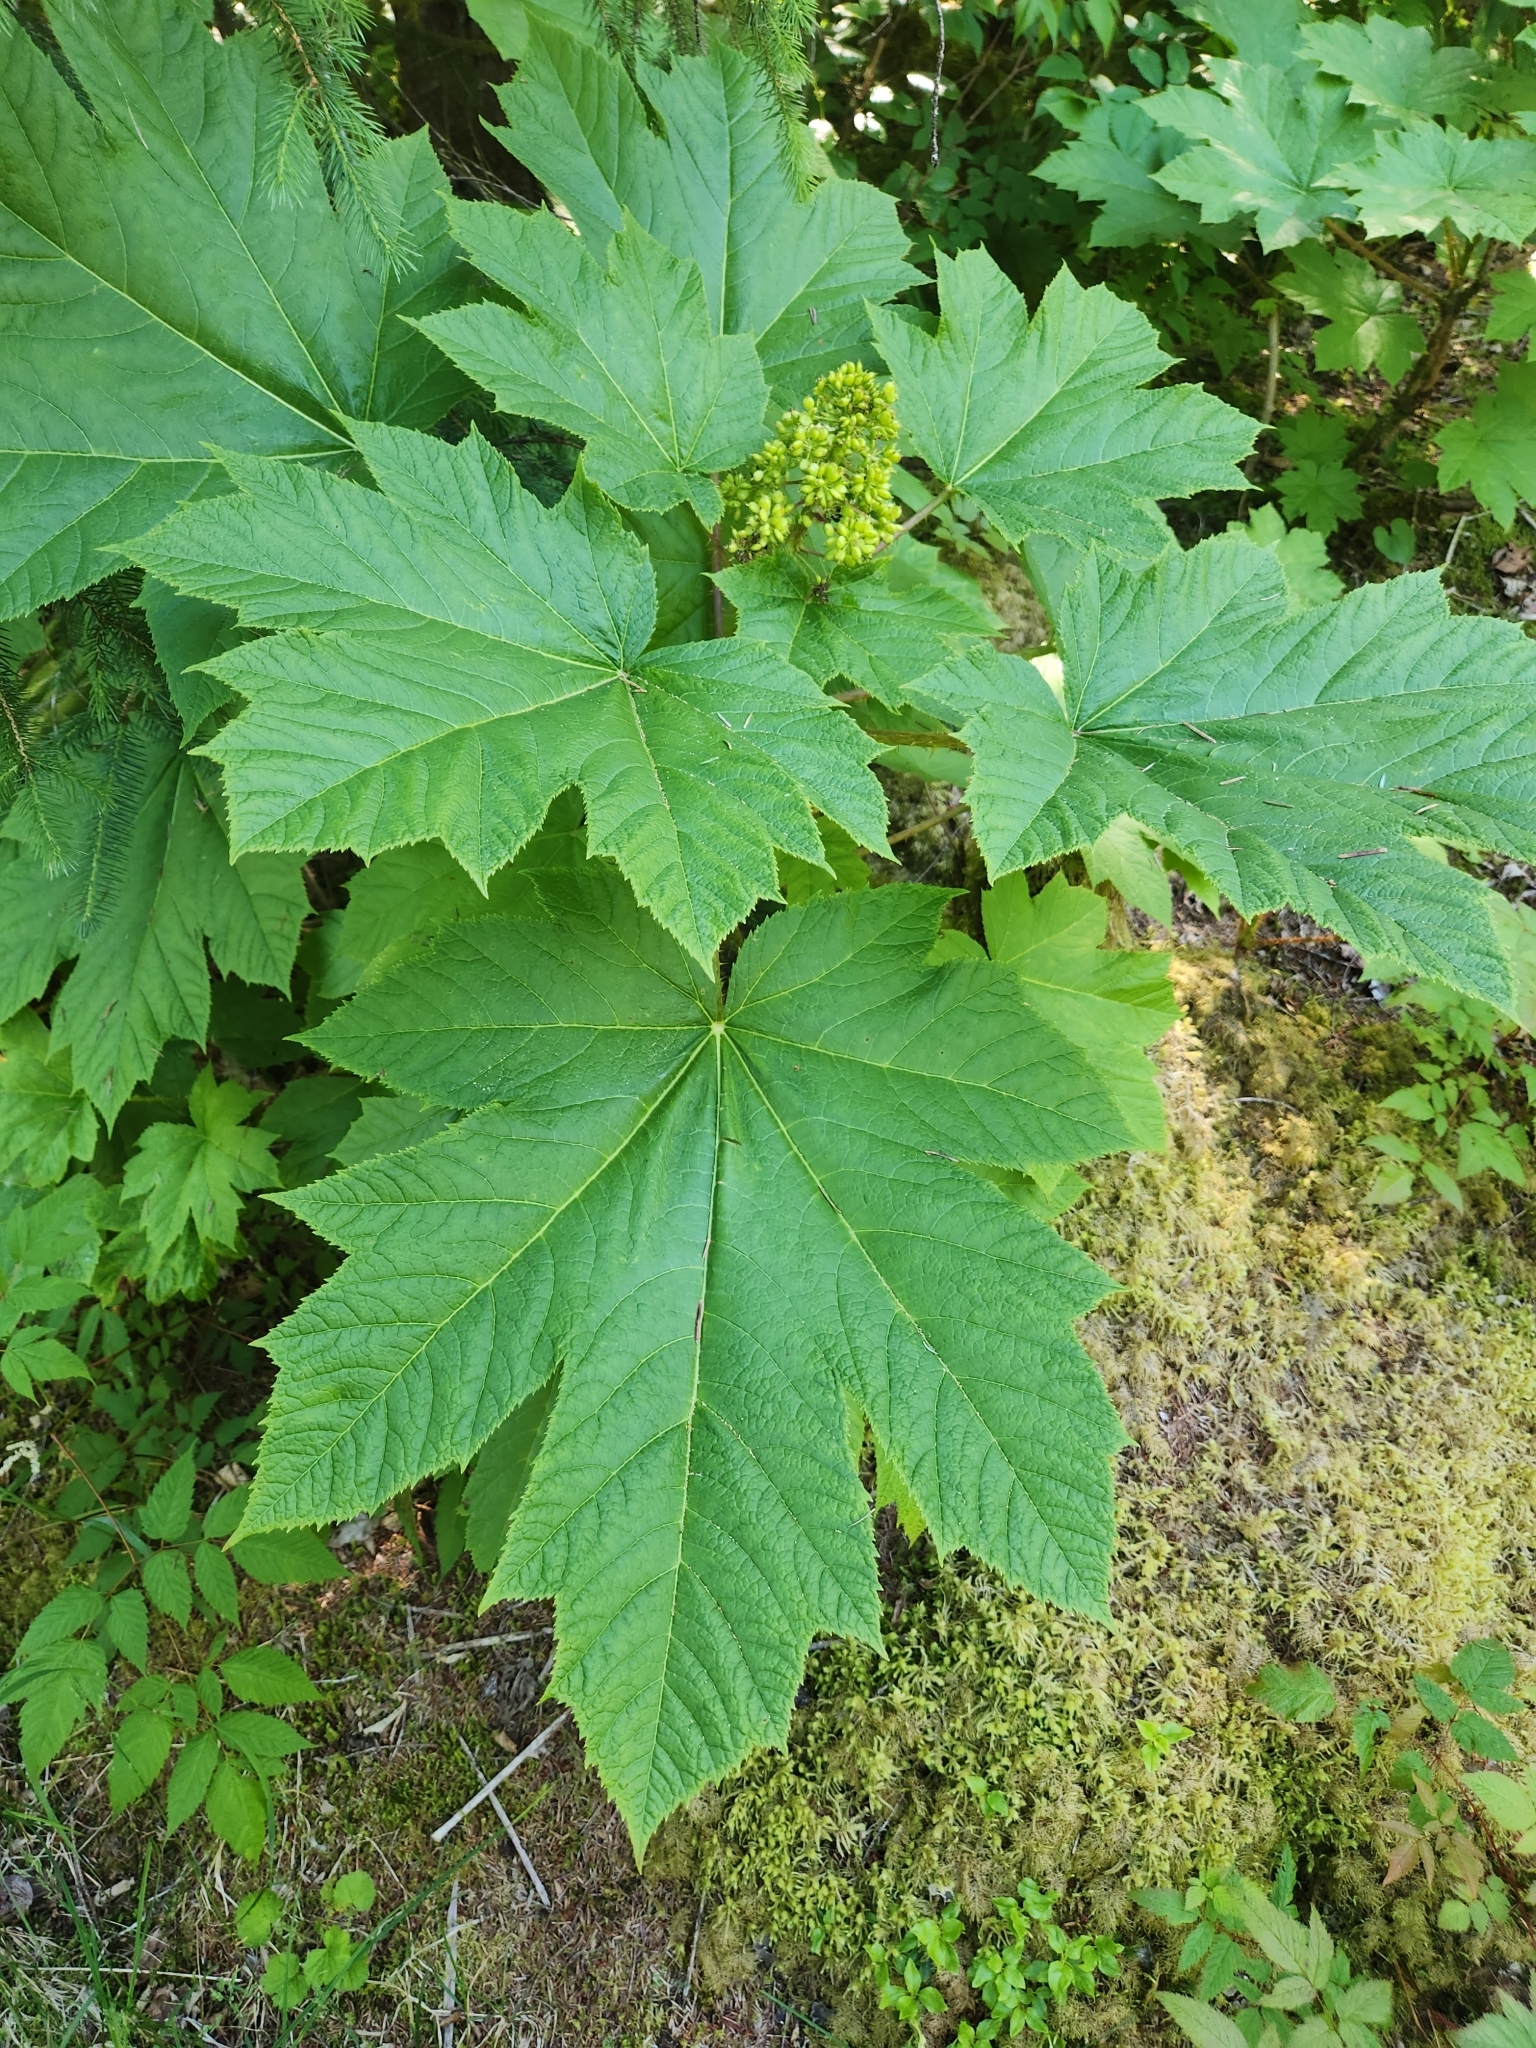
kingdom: Plantae
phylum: Tracheophyta
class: Magnoliopsida
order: Apiales
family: Araliaceae
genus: Oplopanax
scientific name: Oplopanax horridus
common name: Devil's walking-stick
